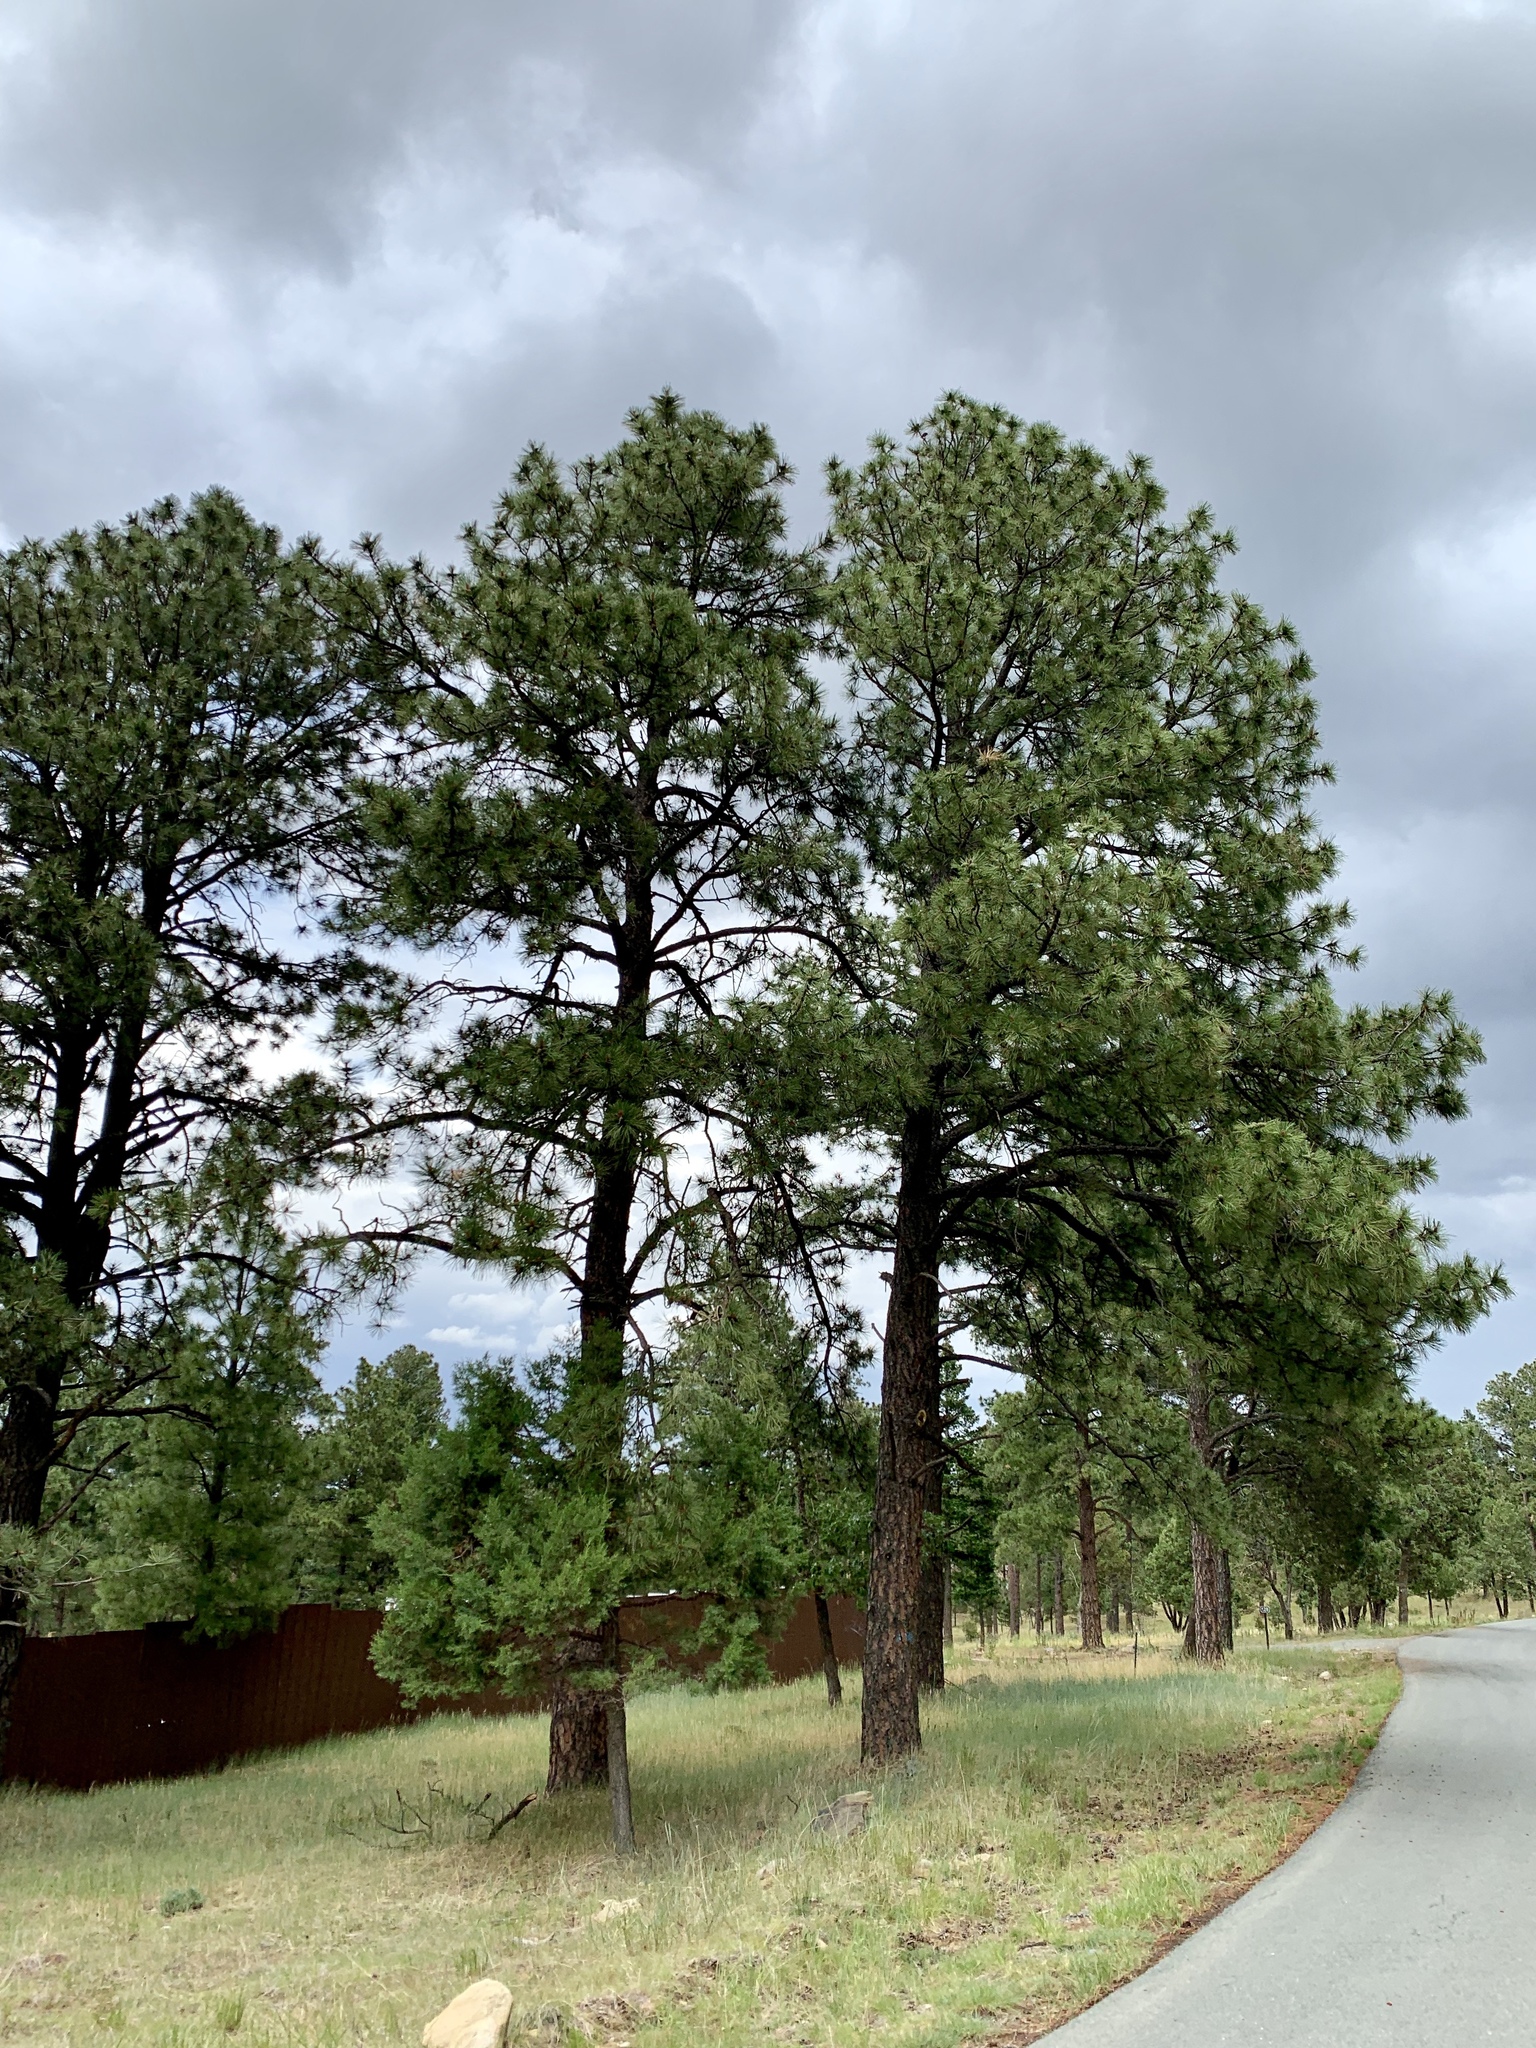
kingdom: Plantae
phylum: Tracheophyta
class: Pinopsida
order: Pinales
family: Pinaceae
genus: Pinus
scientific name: Pinus ponderosa
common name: Western yellow-pine
